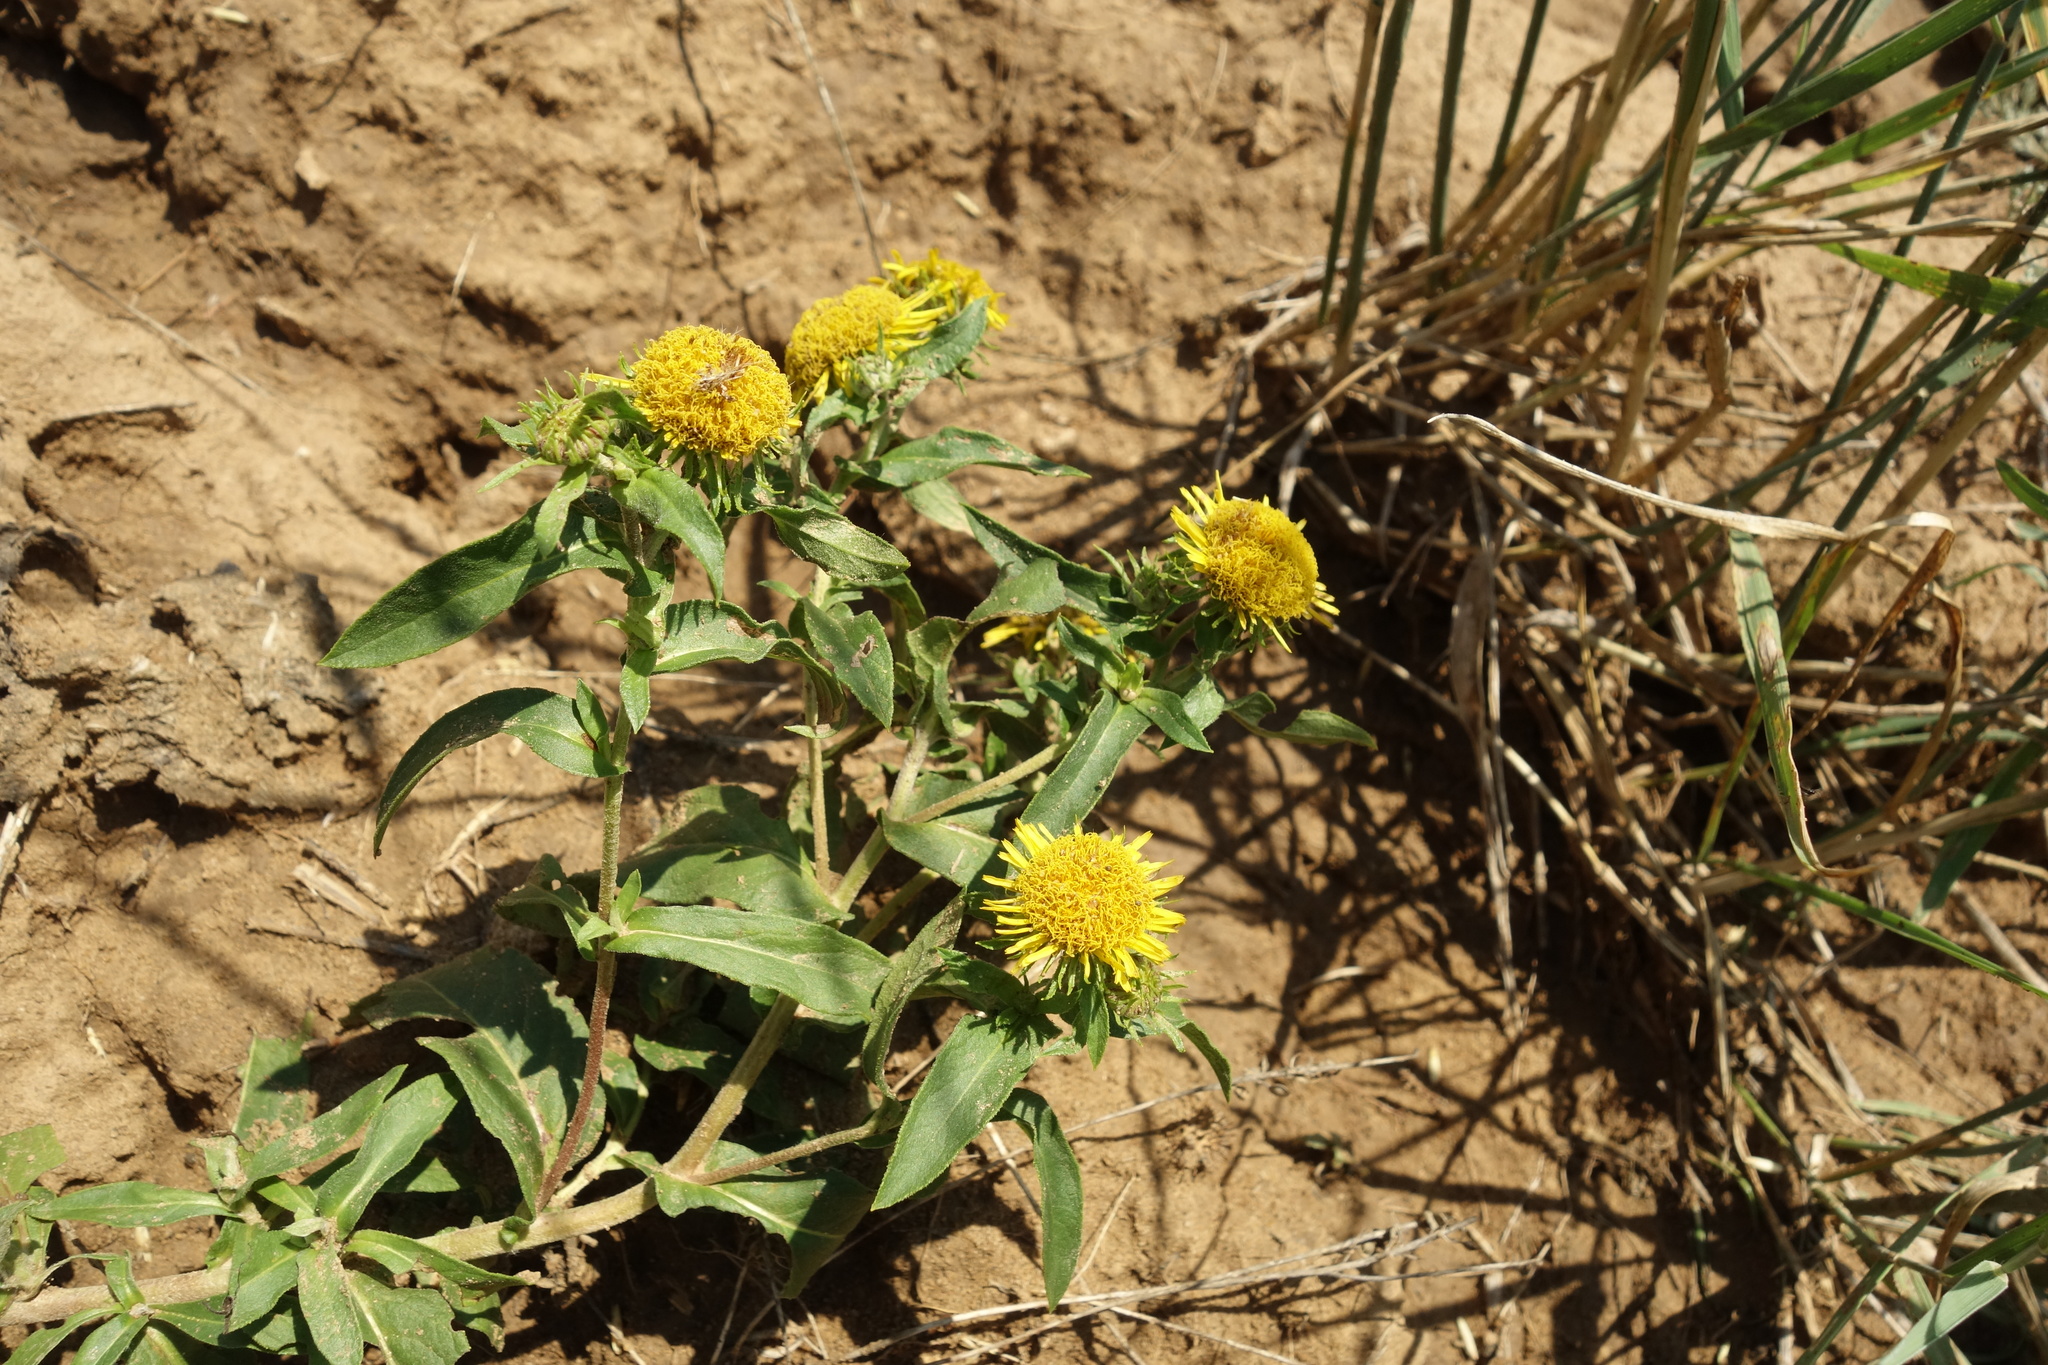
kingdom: Plantae
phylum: Tracheophyta
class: Magnoliopsida
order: Asterales
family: Asteraceae
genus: Pentanema
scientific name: Pentanema britannicum
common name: British elecampane
